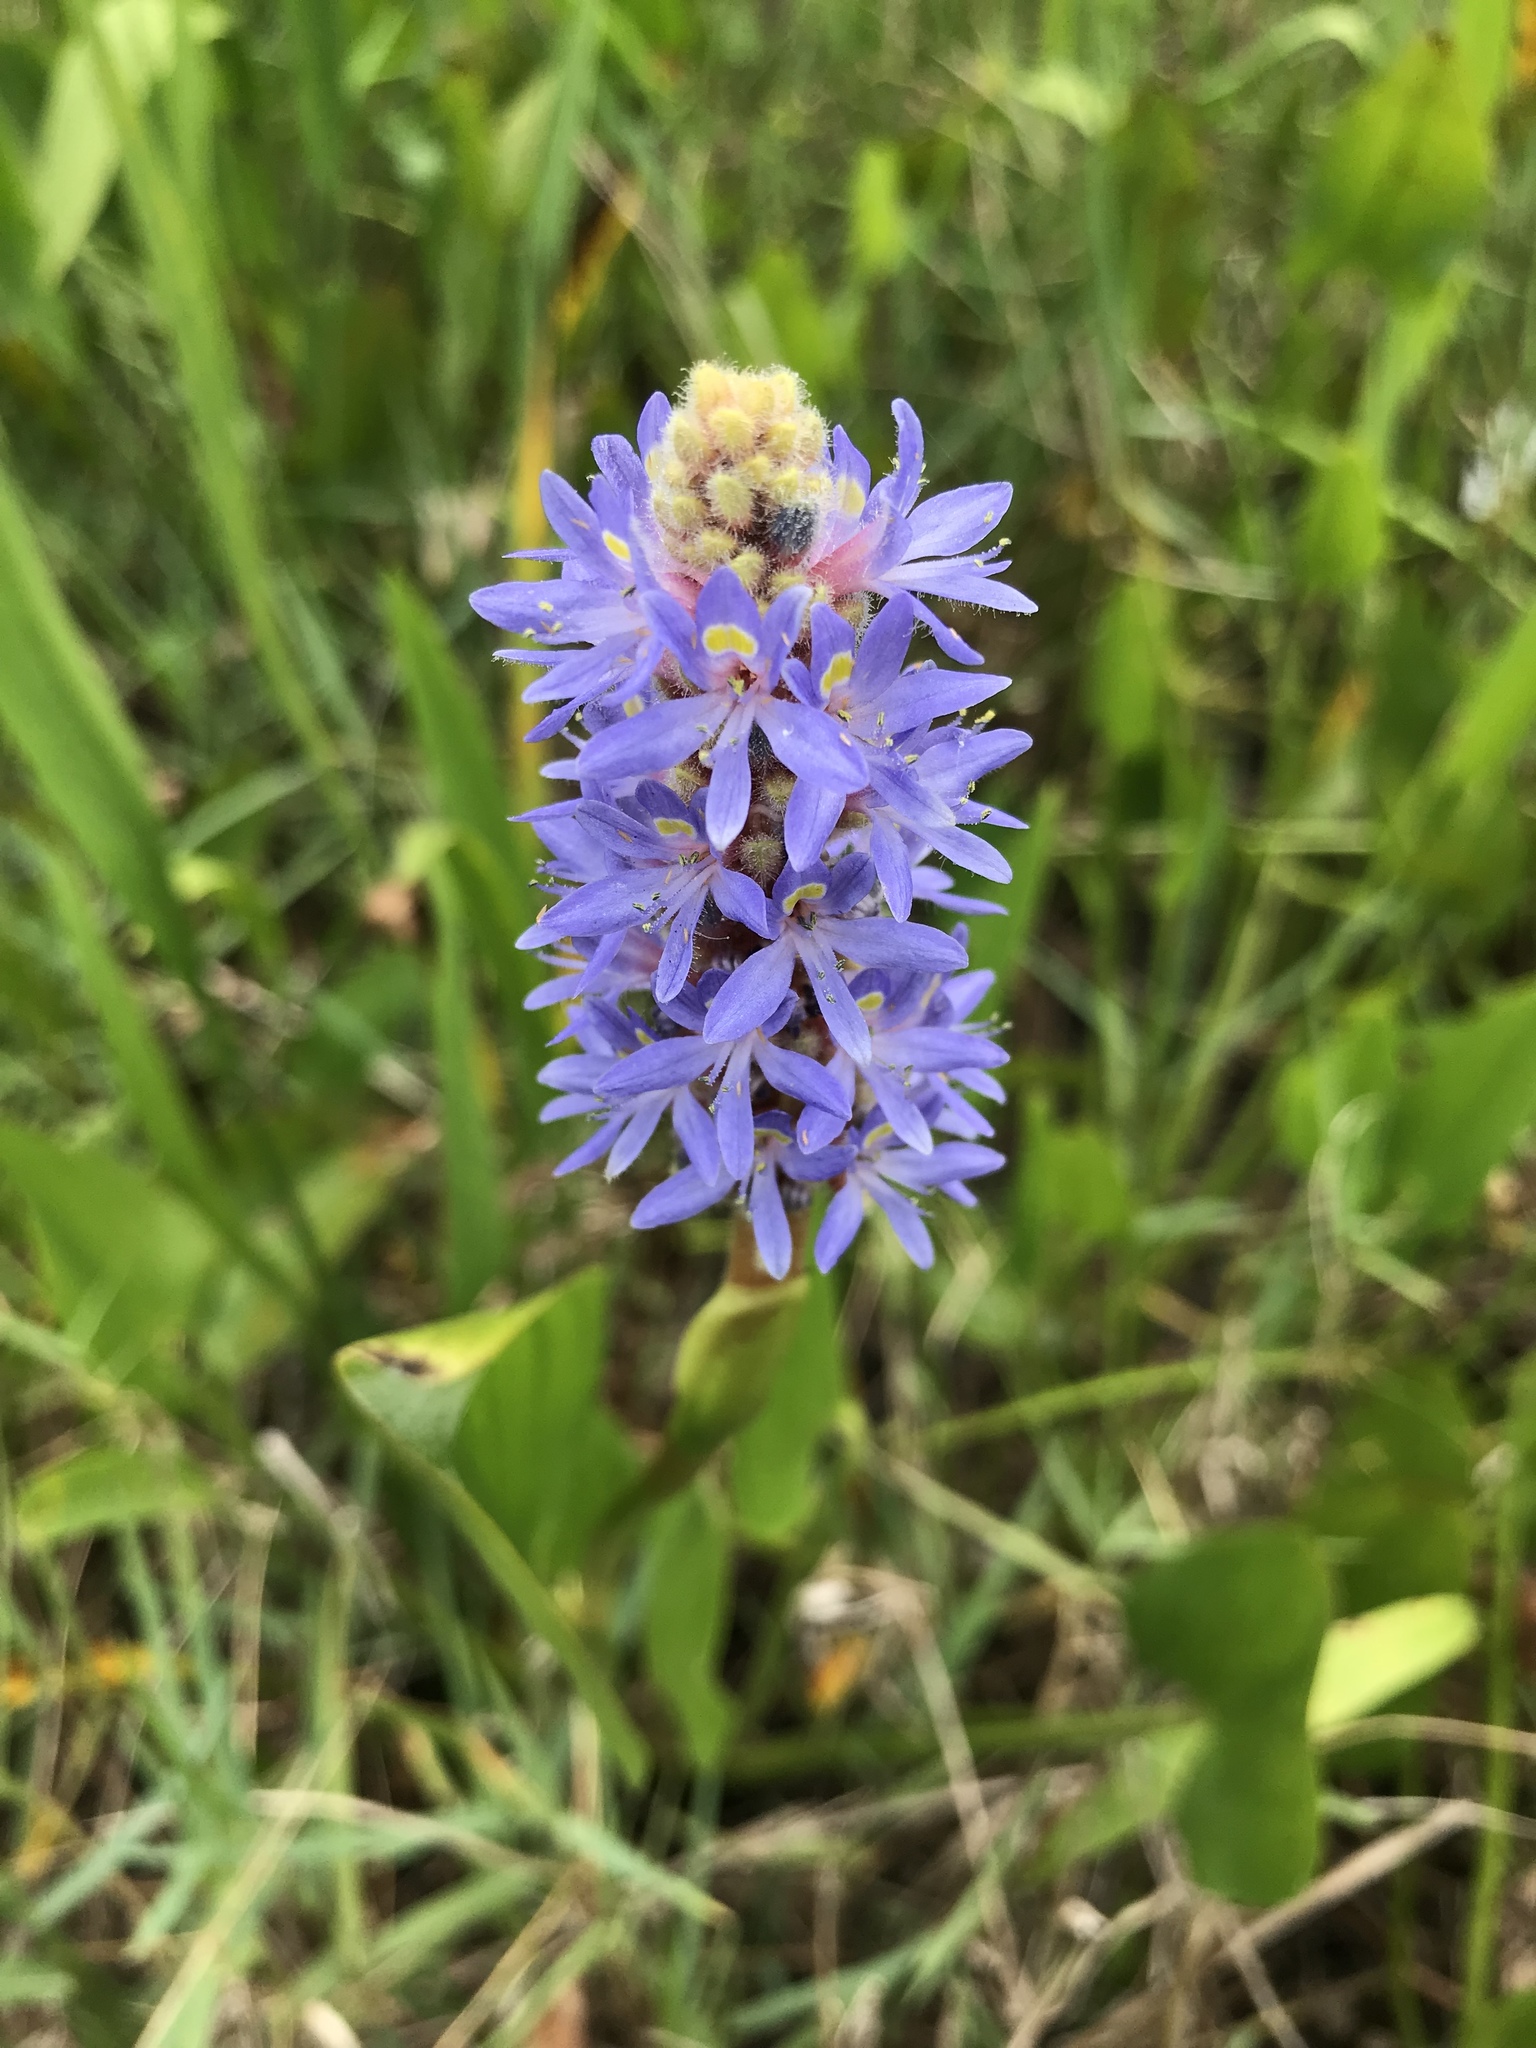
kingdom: Plantae
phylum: Tracheophyta
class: Liliopsida
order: Commelinales
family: Pontederiaceae
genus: Pontederia
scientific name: Pontederia cordata
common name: Pickerelweed
